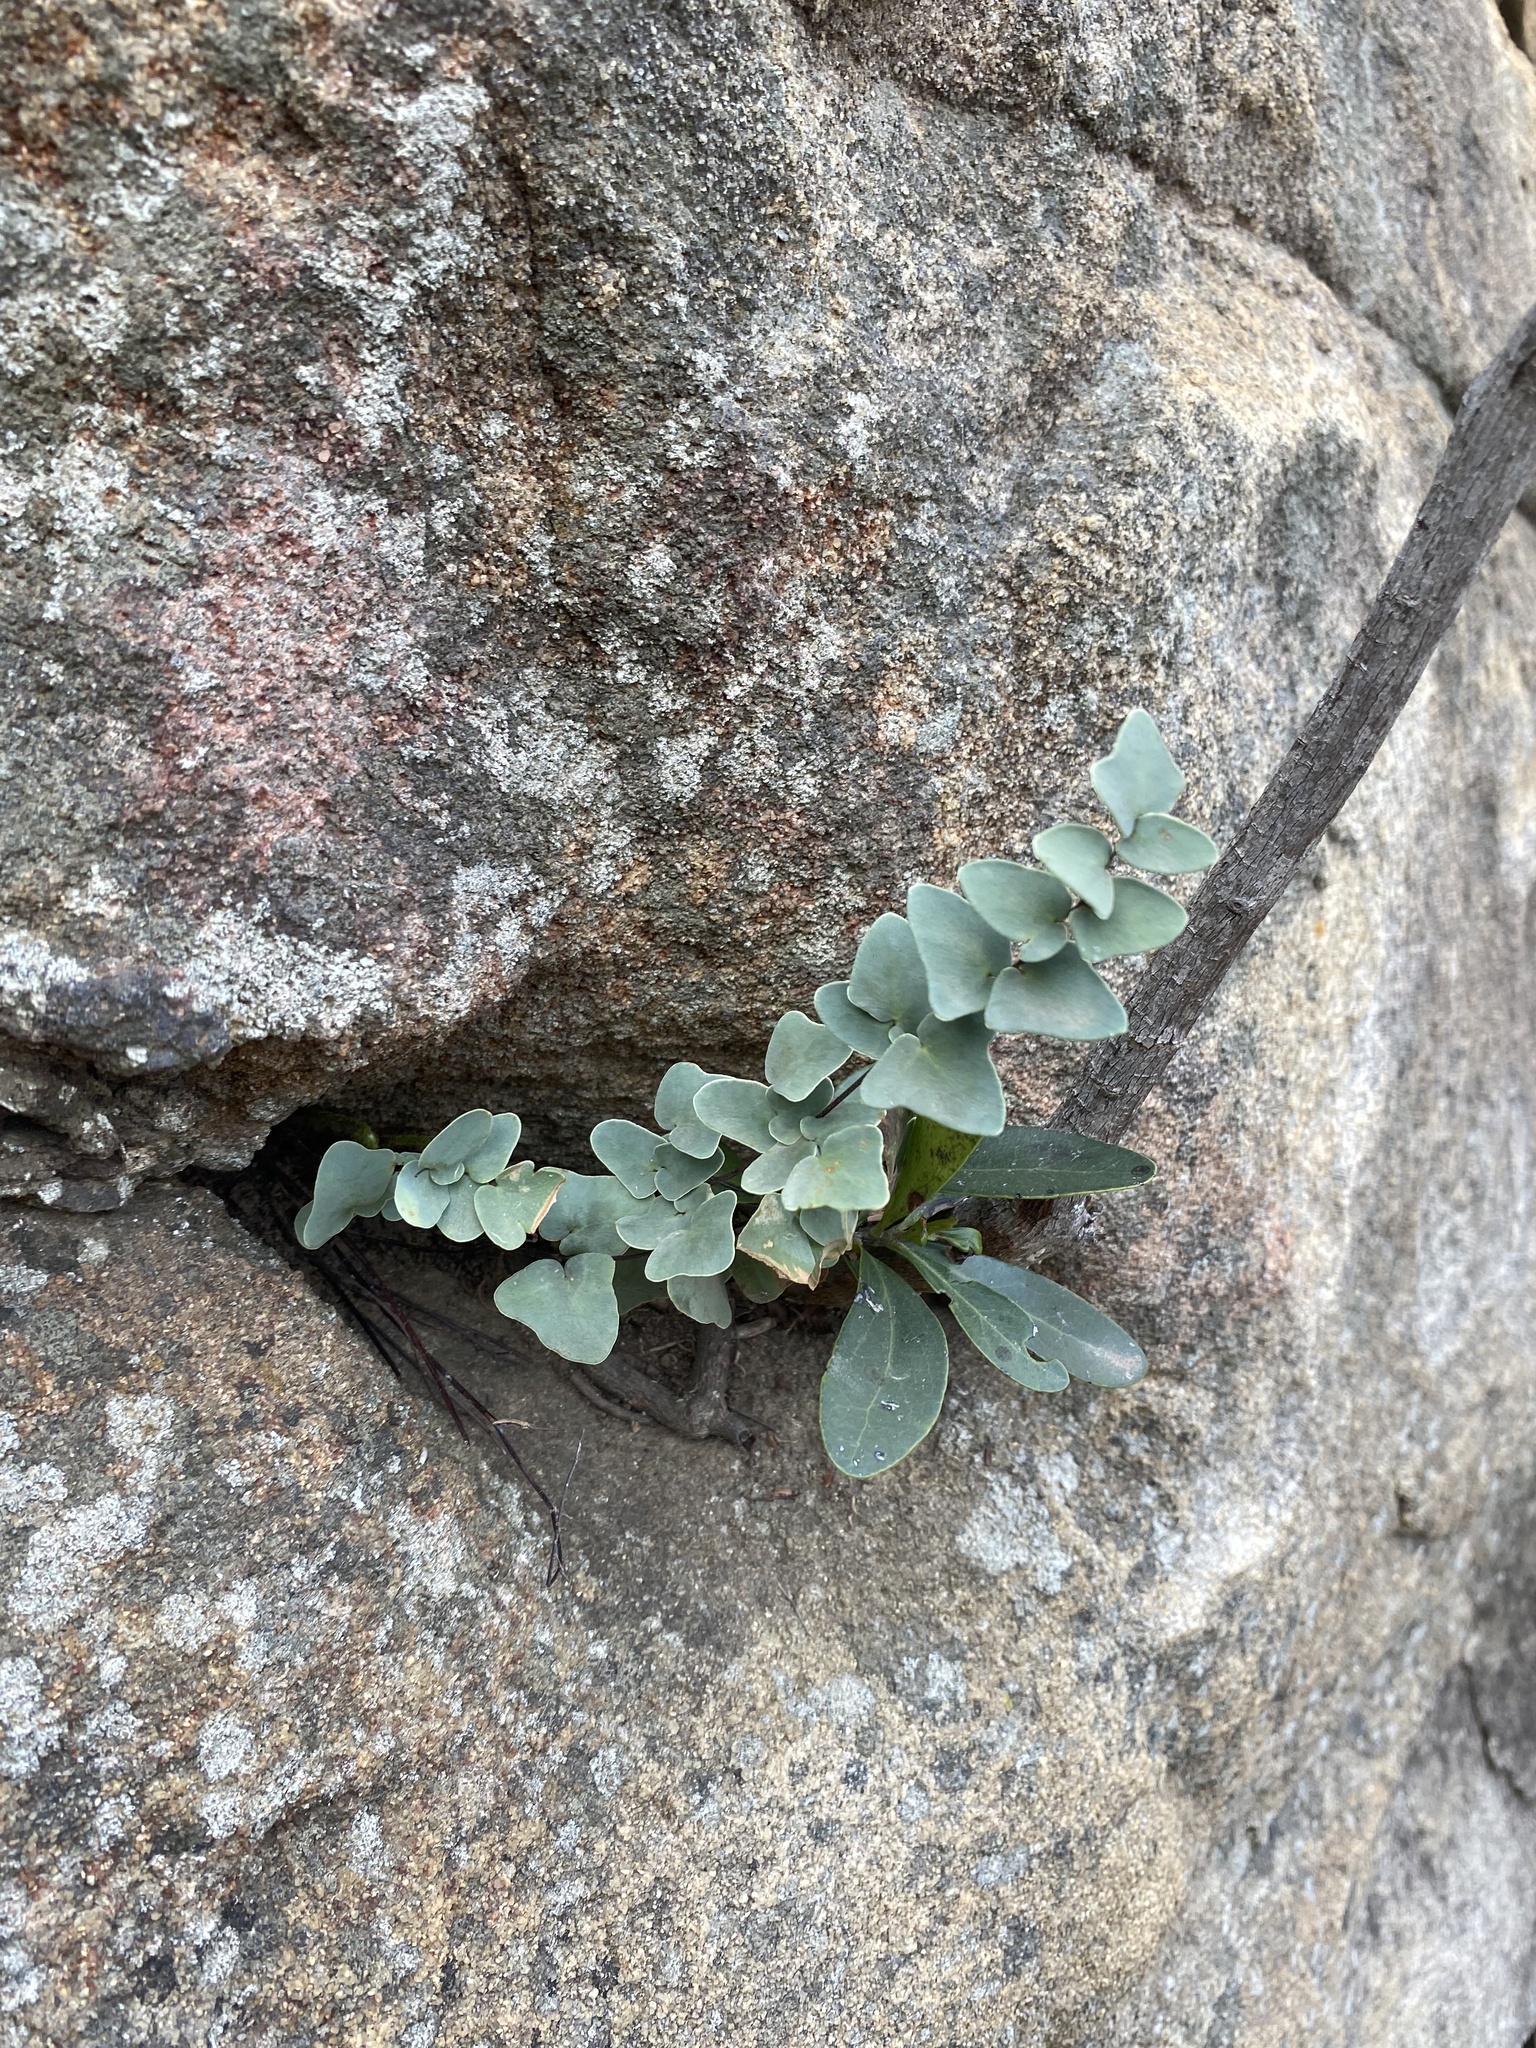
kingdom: Plantae
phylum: Tracheophyta
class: Polypodiopsida
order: Polypodiales
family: Pteridaceae
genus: Pellaea
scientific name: Pellaea calomelanos
